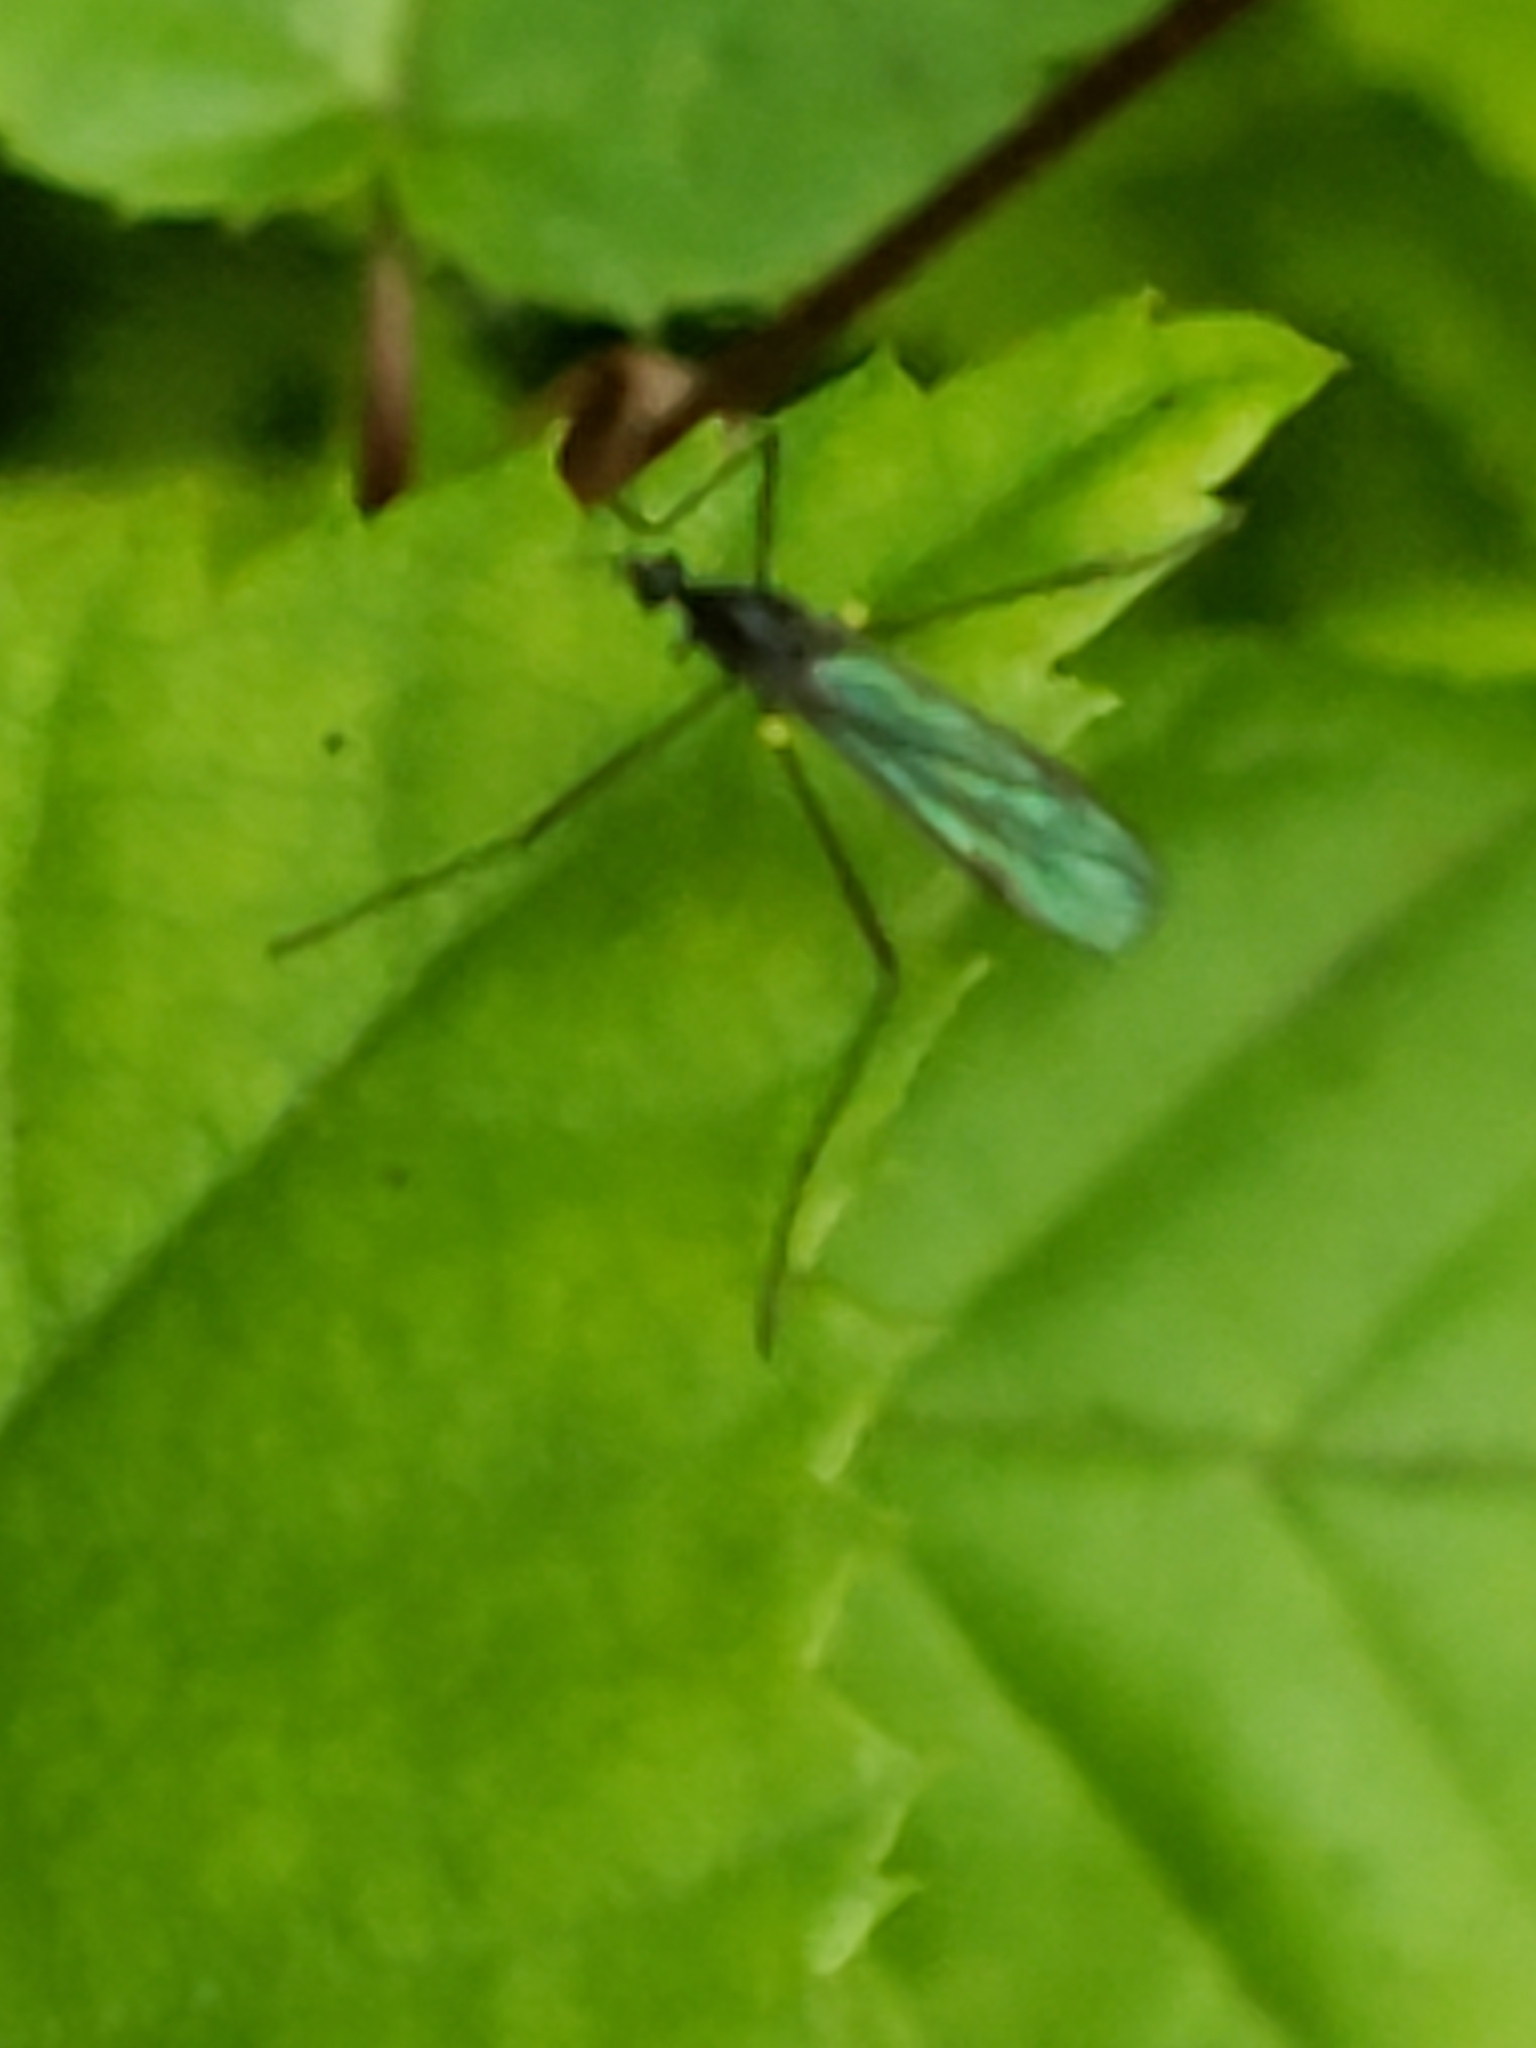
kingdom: Animalia
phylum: Arthropoda
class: Insecta
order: Diptera
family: Limoniidae
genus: Gnophomyia
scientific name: Gnophomyia tristissima
